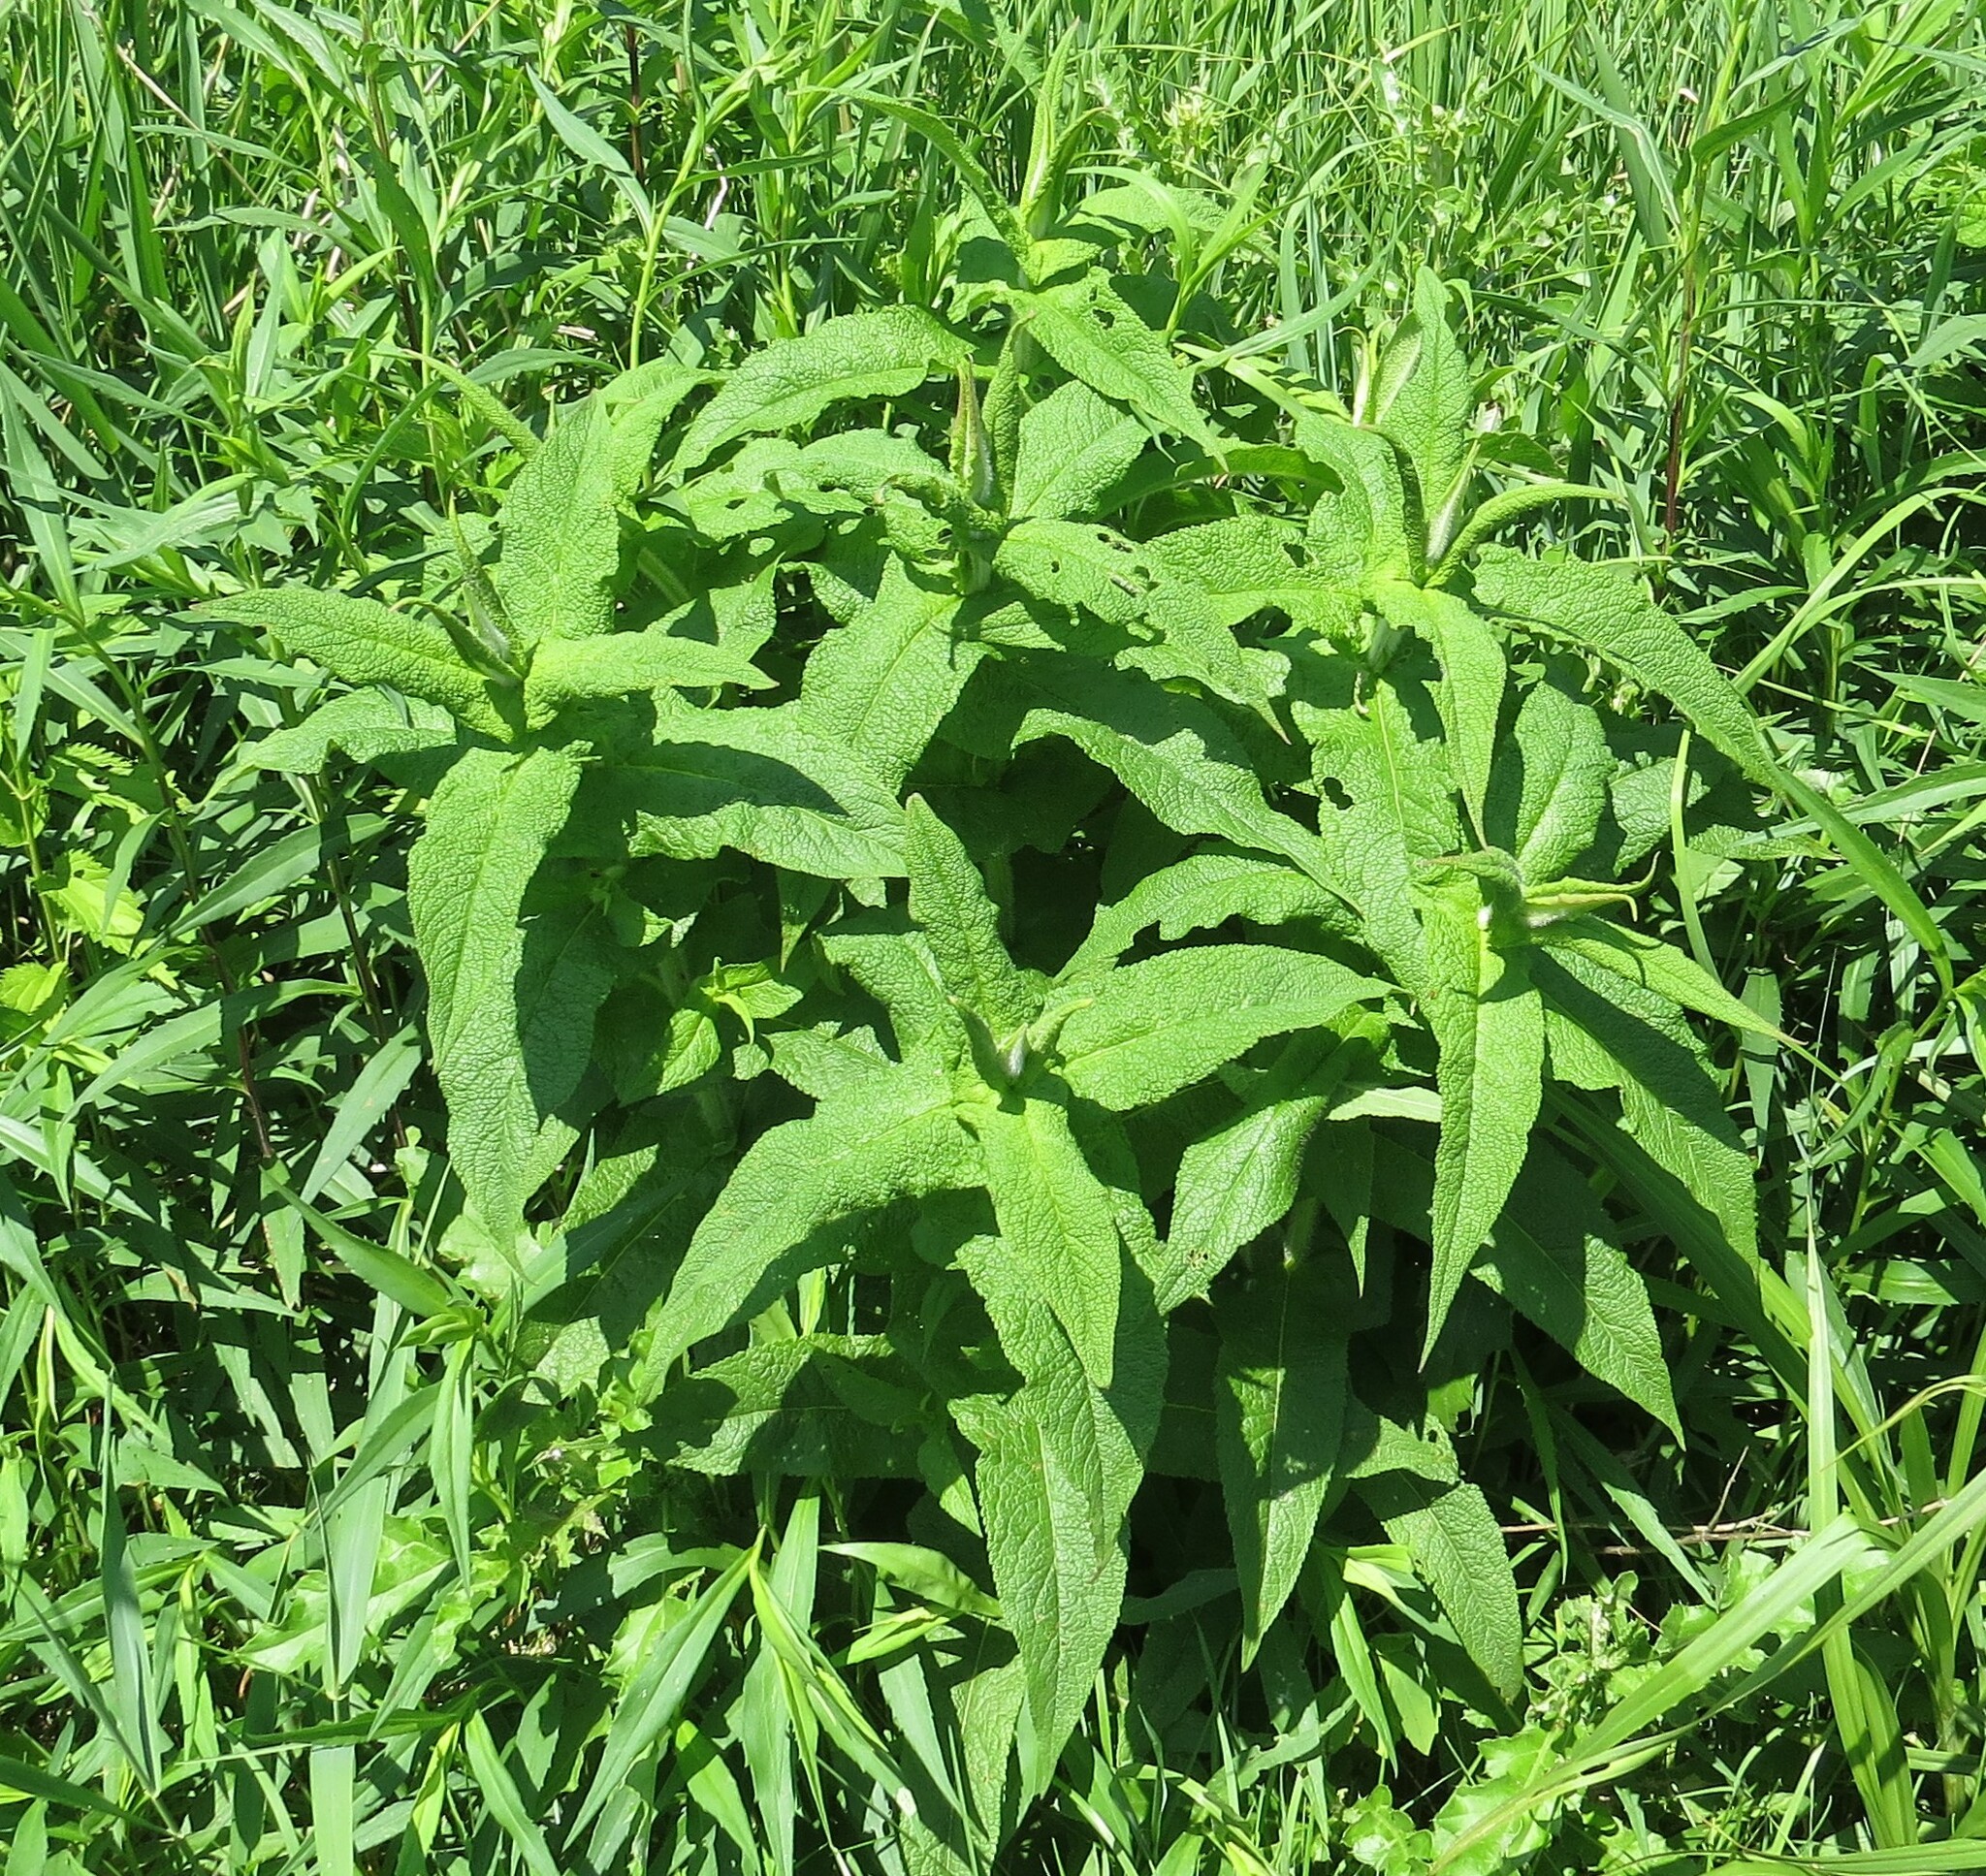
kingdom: Plantae
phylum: Tracheophyta
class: Magnoliopsida
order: Asterales
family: Asteraceae
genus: Eupatorium
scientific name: Eupatorium perfoliatum
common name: Boneset
